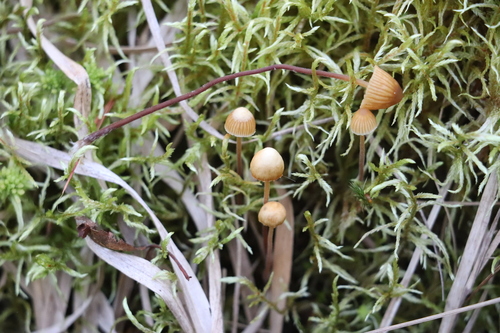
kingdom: Fungi
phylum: Basidiomycota
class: Agaricomycetes
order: Agaricales
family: Hymenogastraceae
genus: Galerina
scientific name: Galerina
